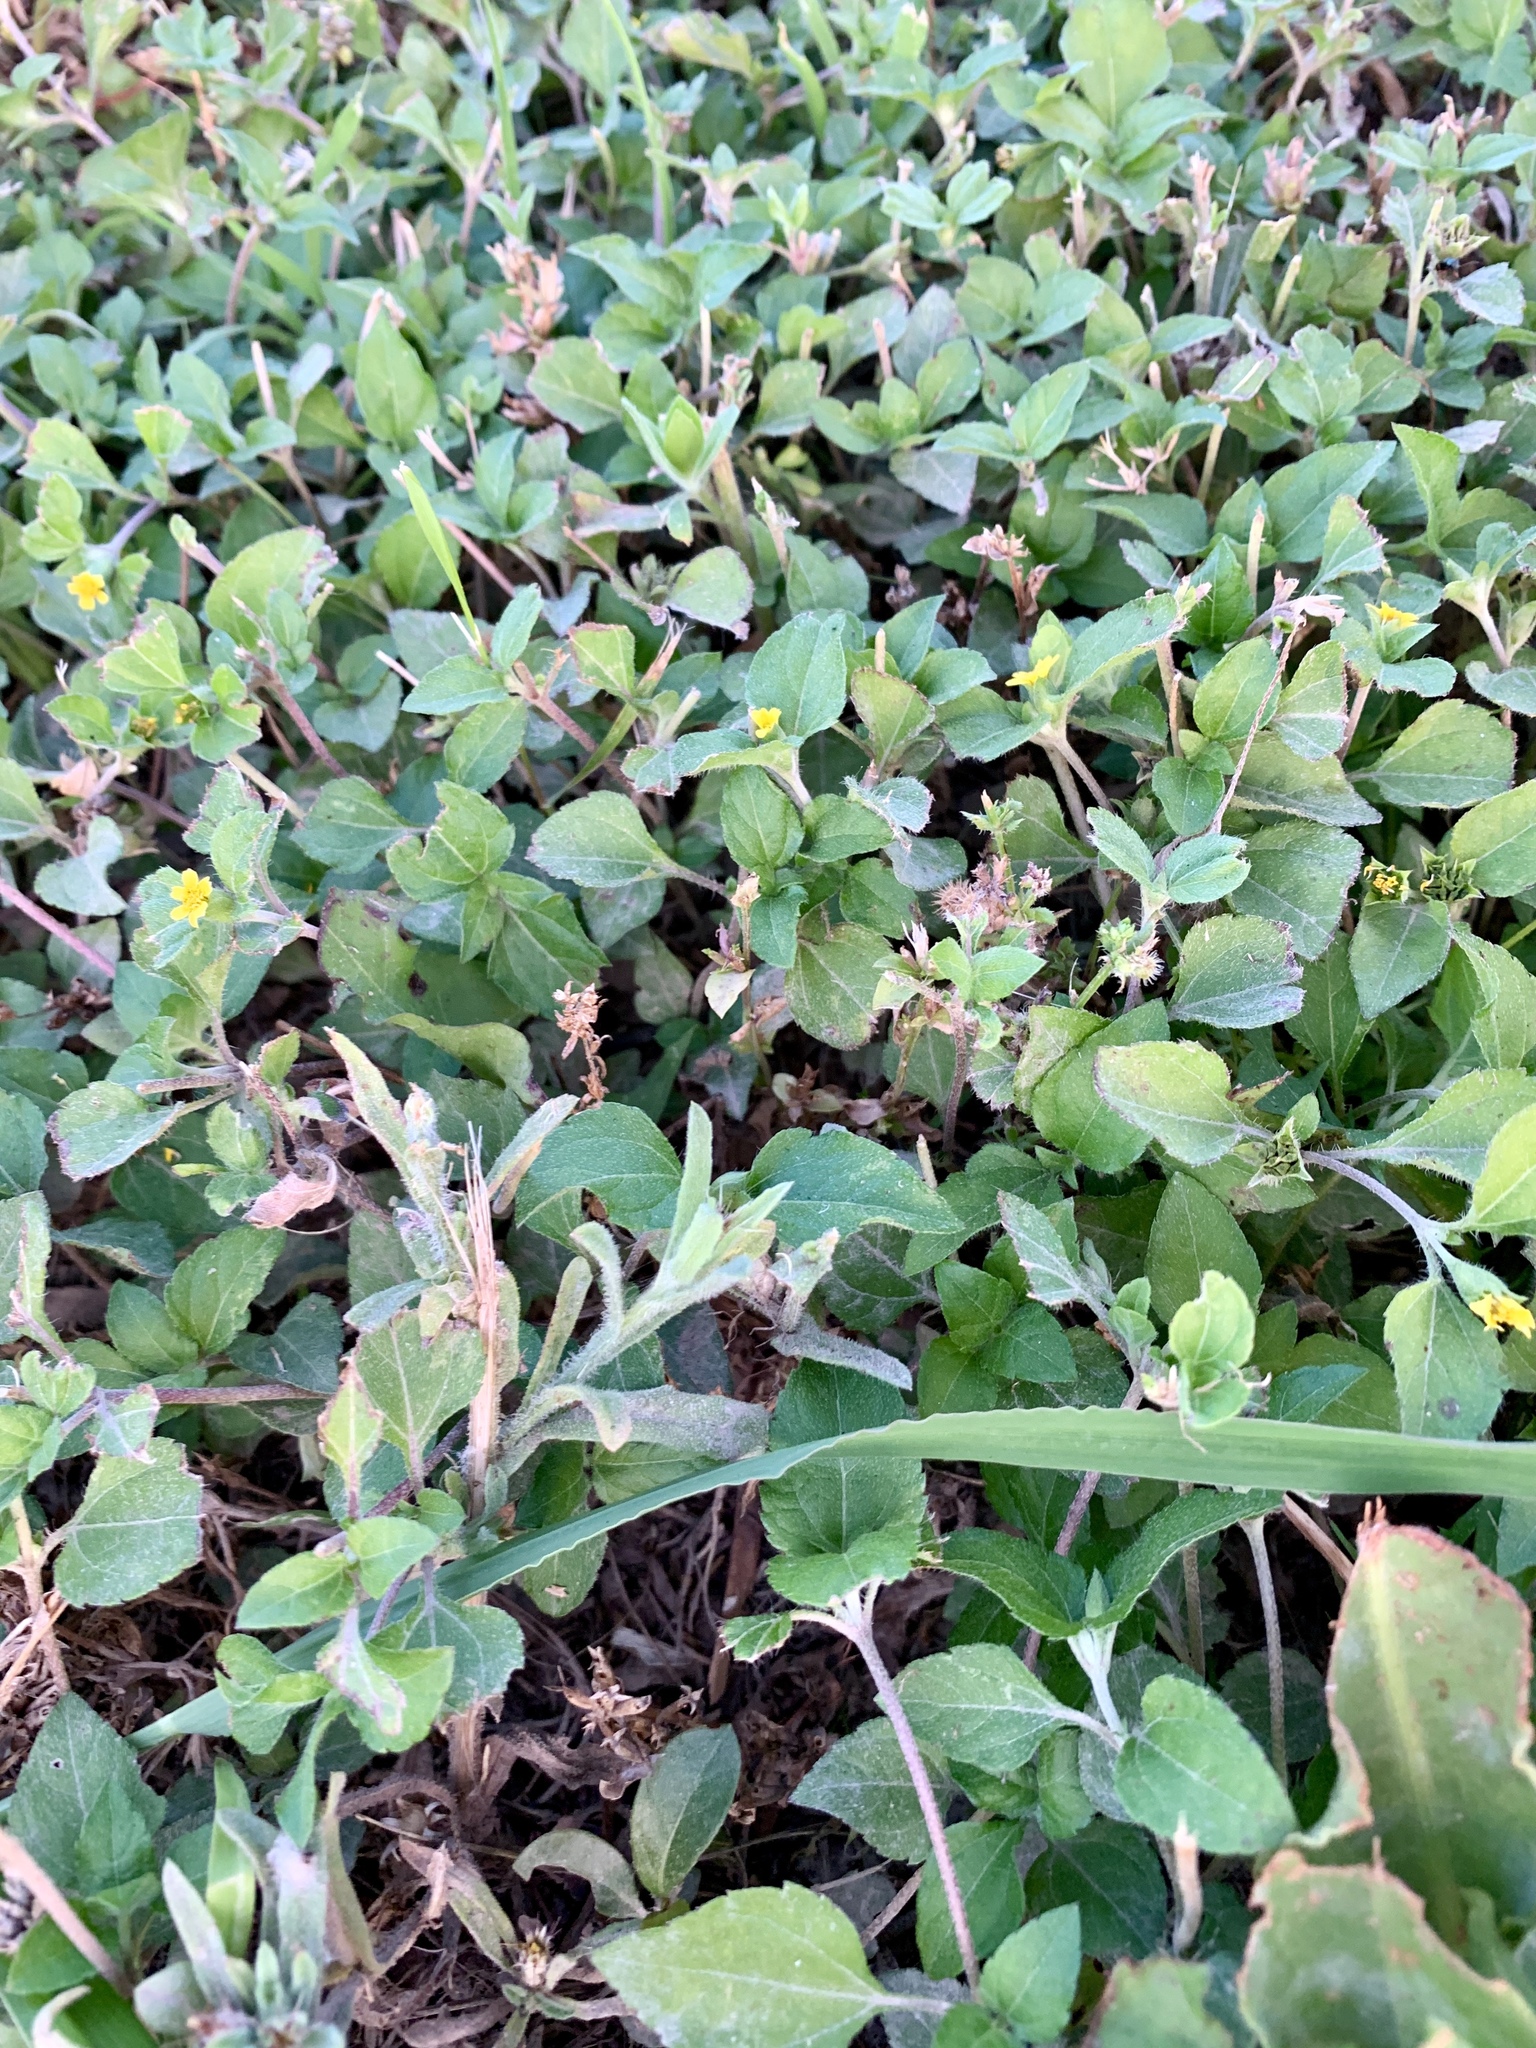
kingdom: Plantae
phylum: Tracheophyta
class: Magnoliopsida
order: Asterales
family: Asteraceae
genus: Calyptocarpus
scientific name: Calyptocarpus vialis
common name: Straggler daisy
